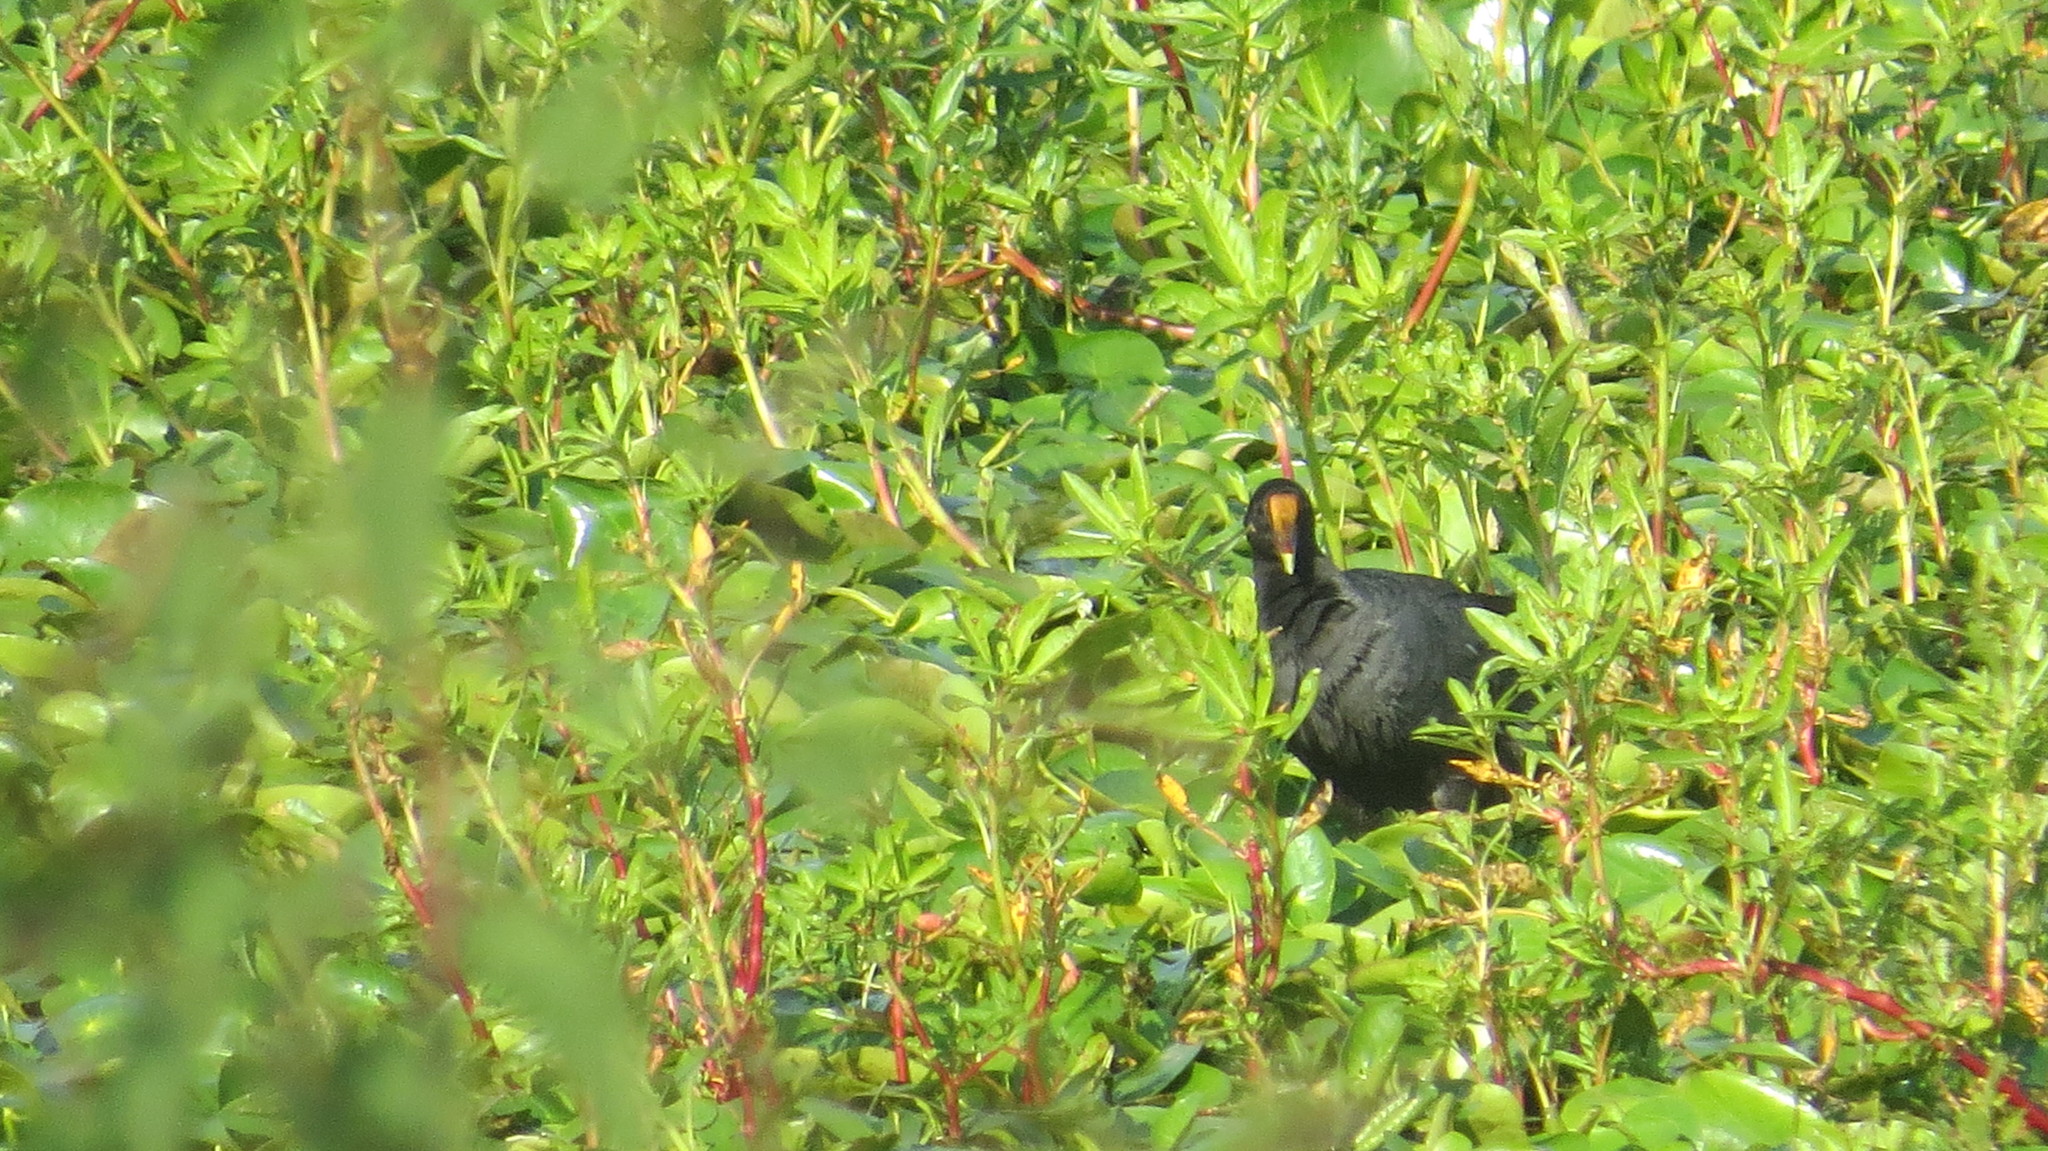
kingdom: Animalia
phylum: Chordata
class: Aves
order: Gruiformes
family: Rallidae
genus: Gallinula
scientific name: Gallinula chloropus
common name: Common moorhen
